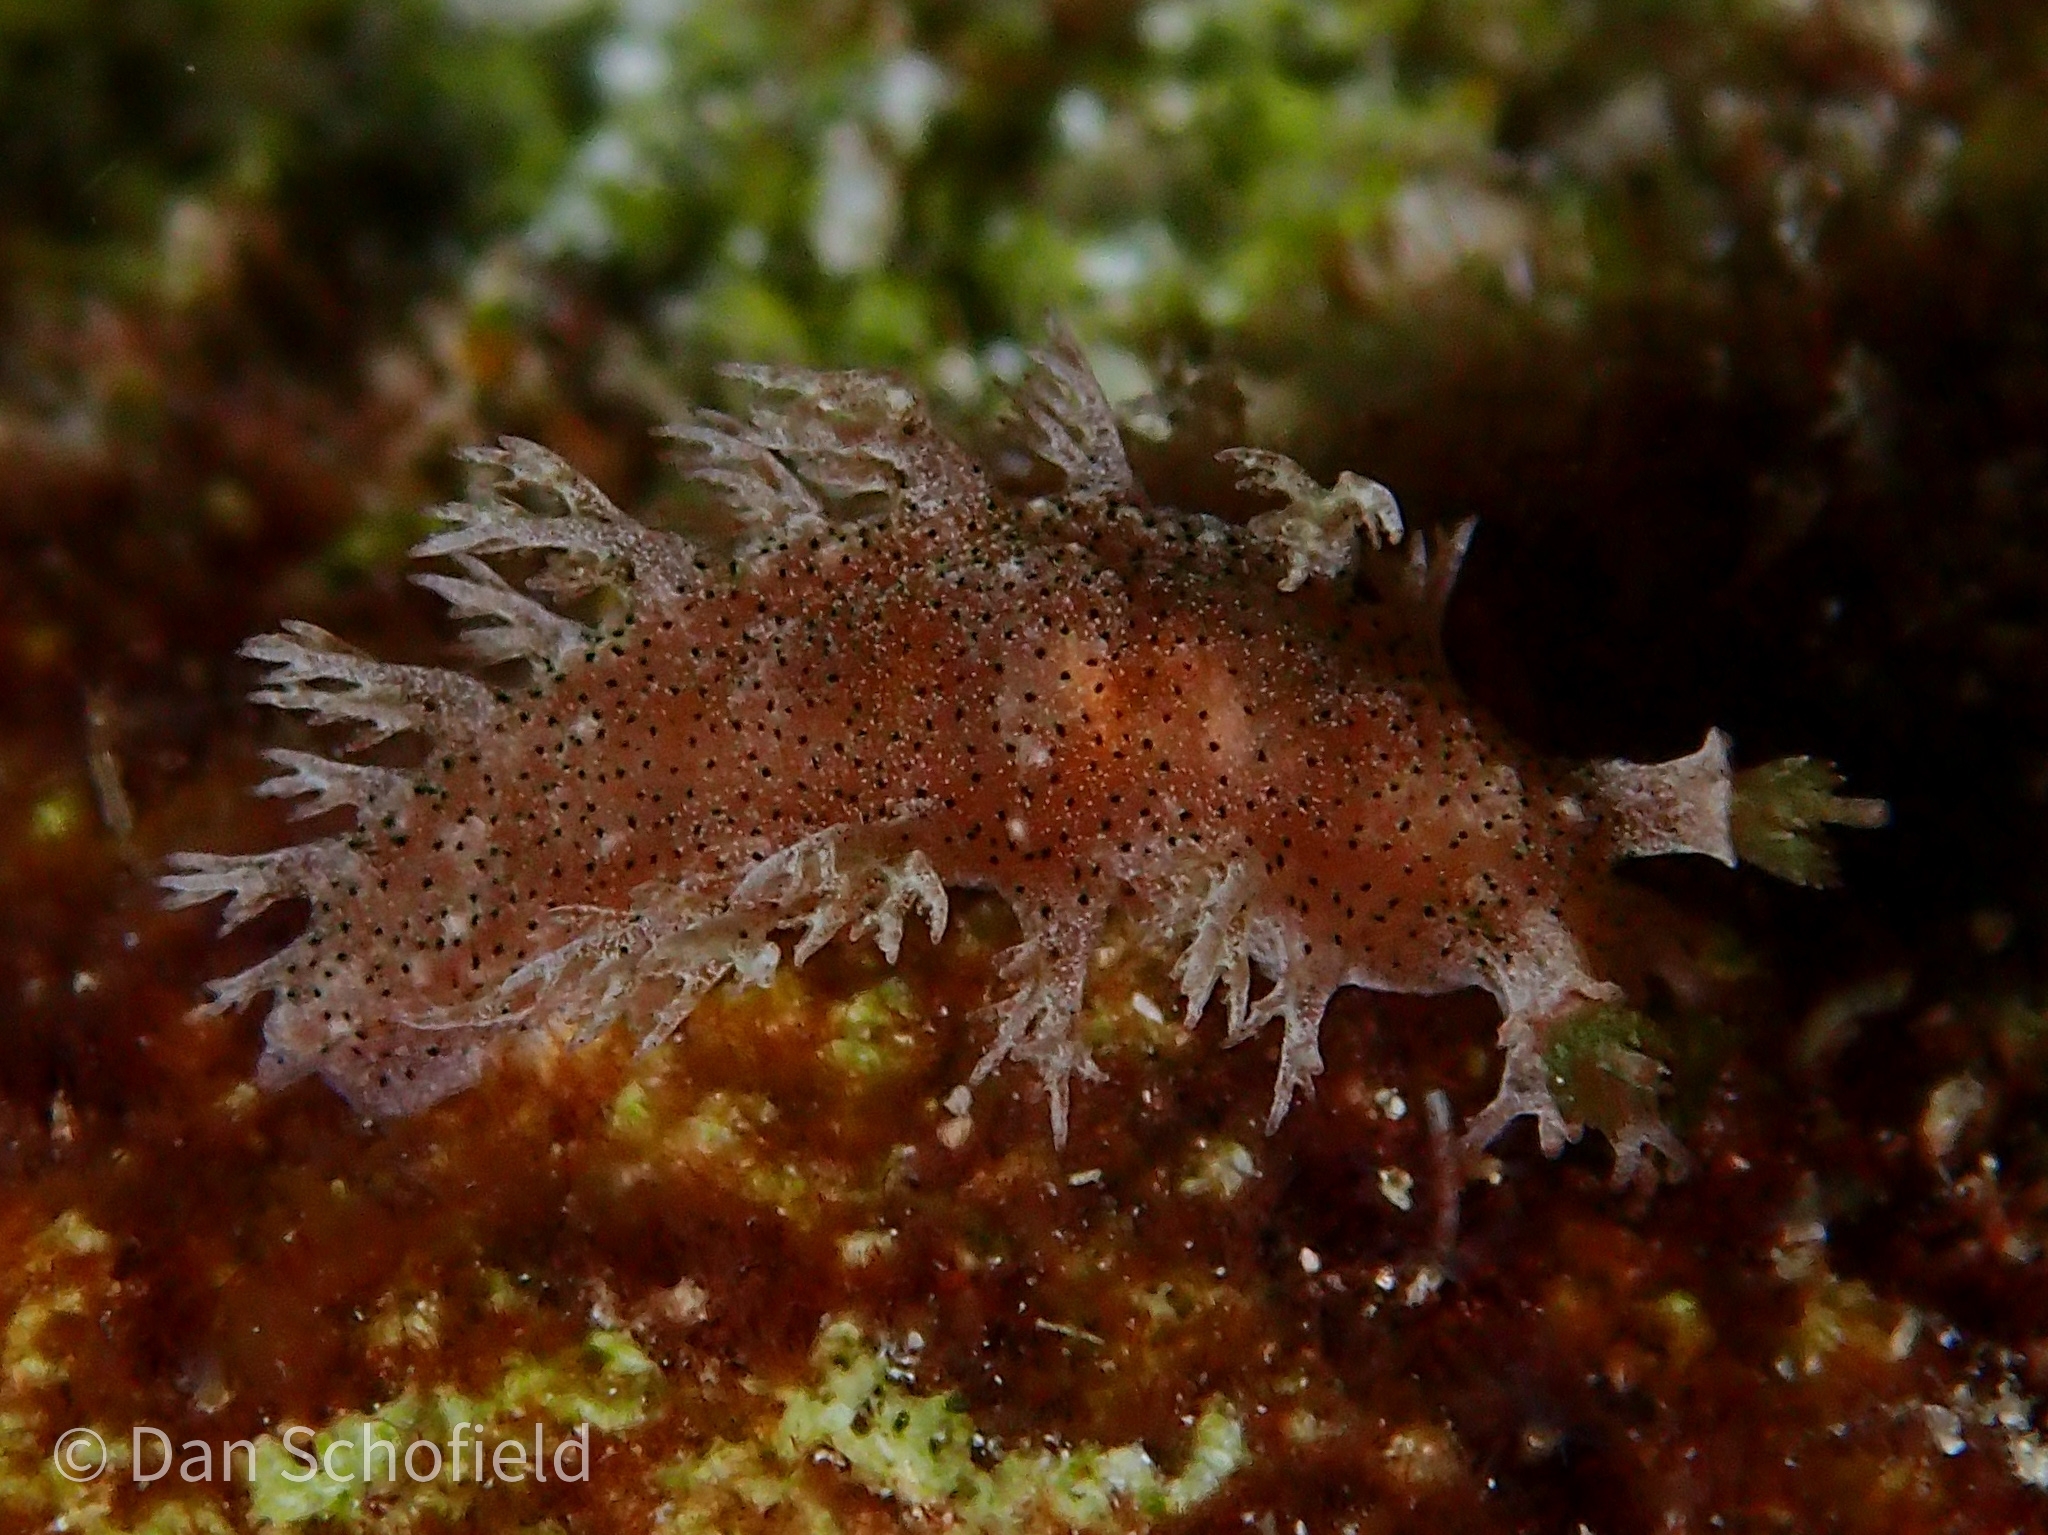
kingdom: Animalia
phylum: Mollusca
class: Gastropoda
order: Nudibranchia
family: Tritoniidae
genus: Tritonia
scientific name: Tritonia
